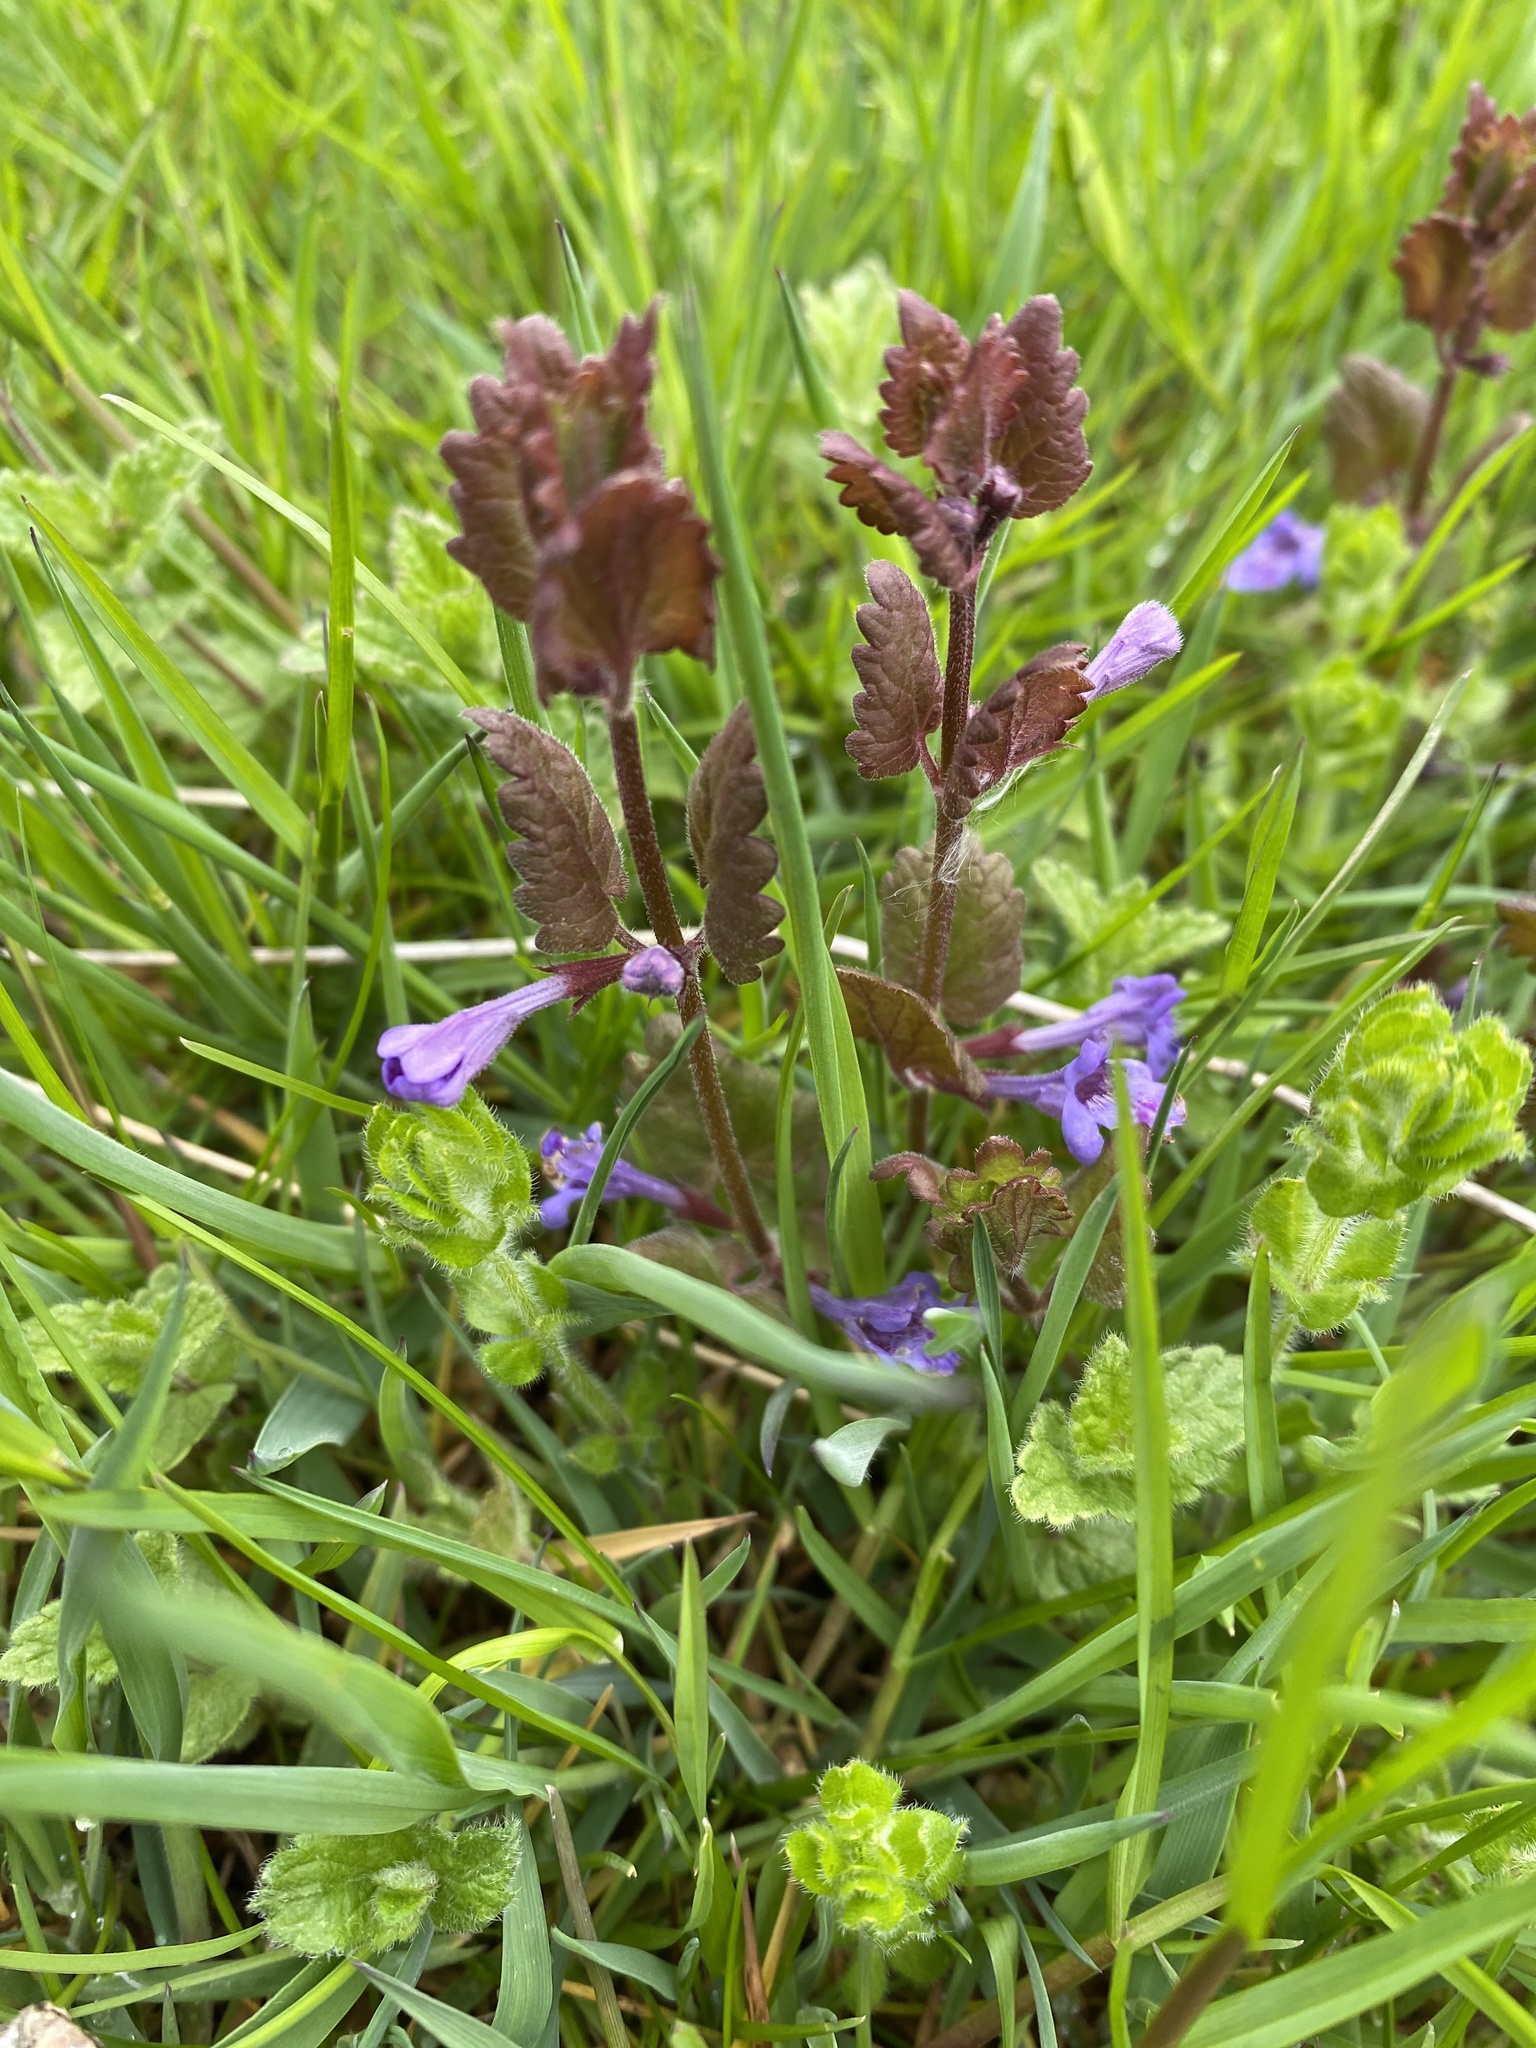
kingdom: Plantae
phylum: Tracheophyta
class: Magnoliopsida
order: Lamiales
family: Lamiaceae
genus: Glechoma
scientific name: Glechoma hederacea
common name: Ground ivy
